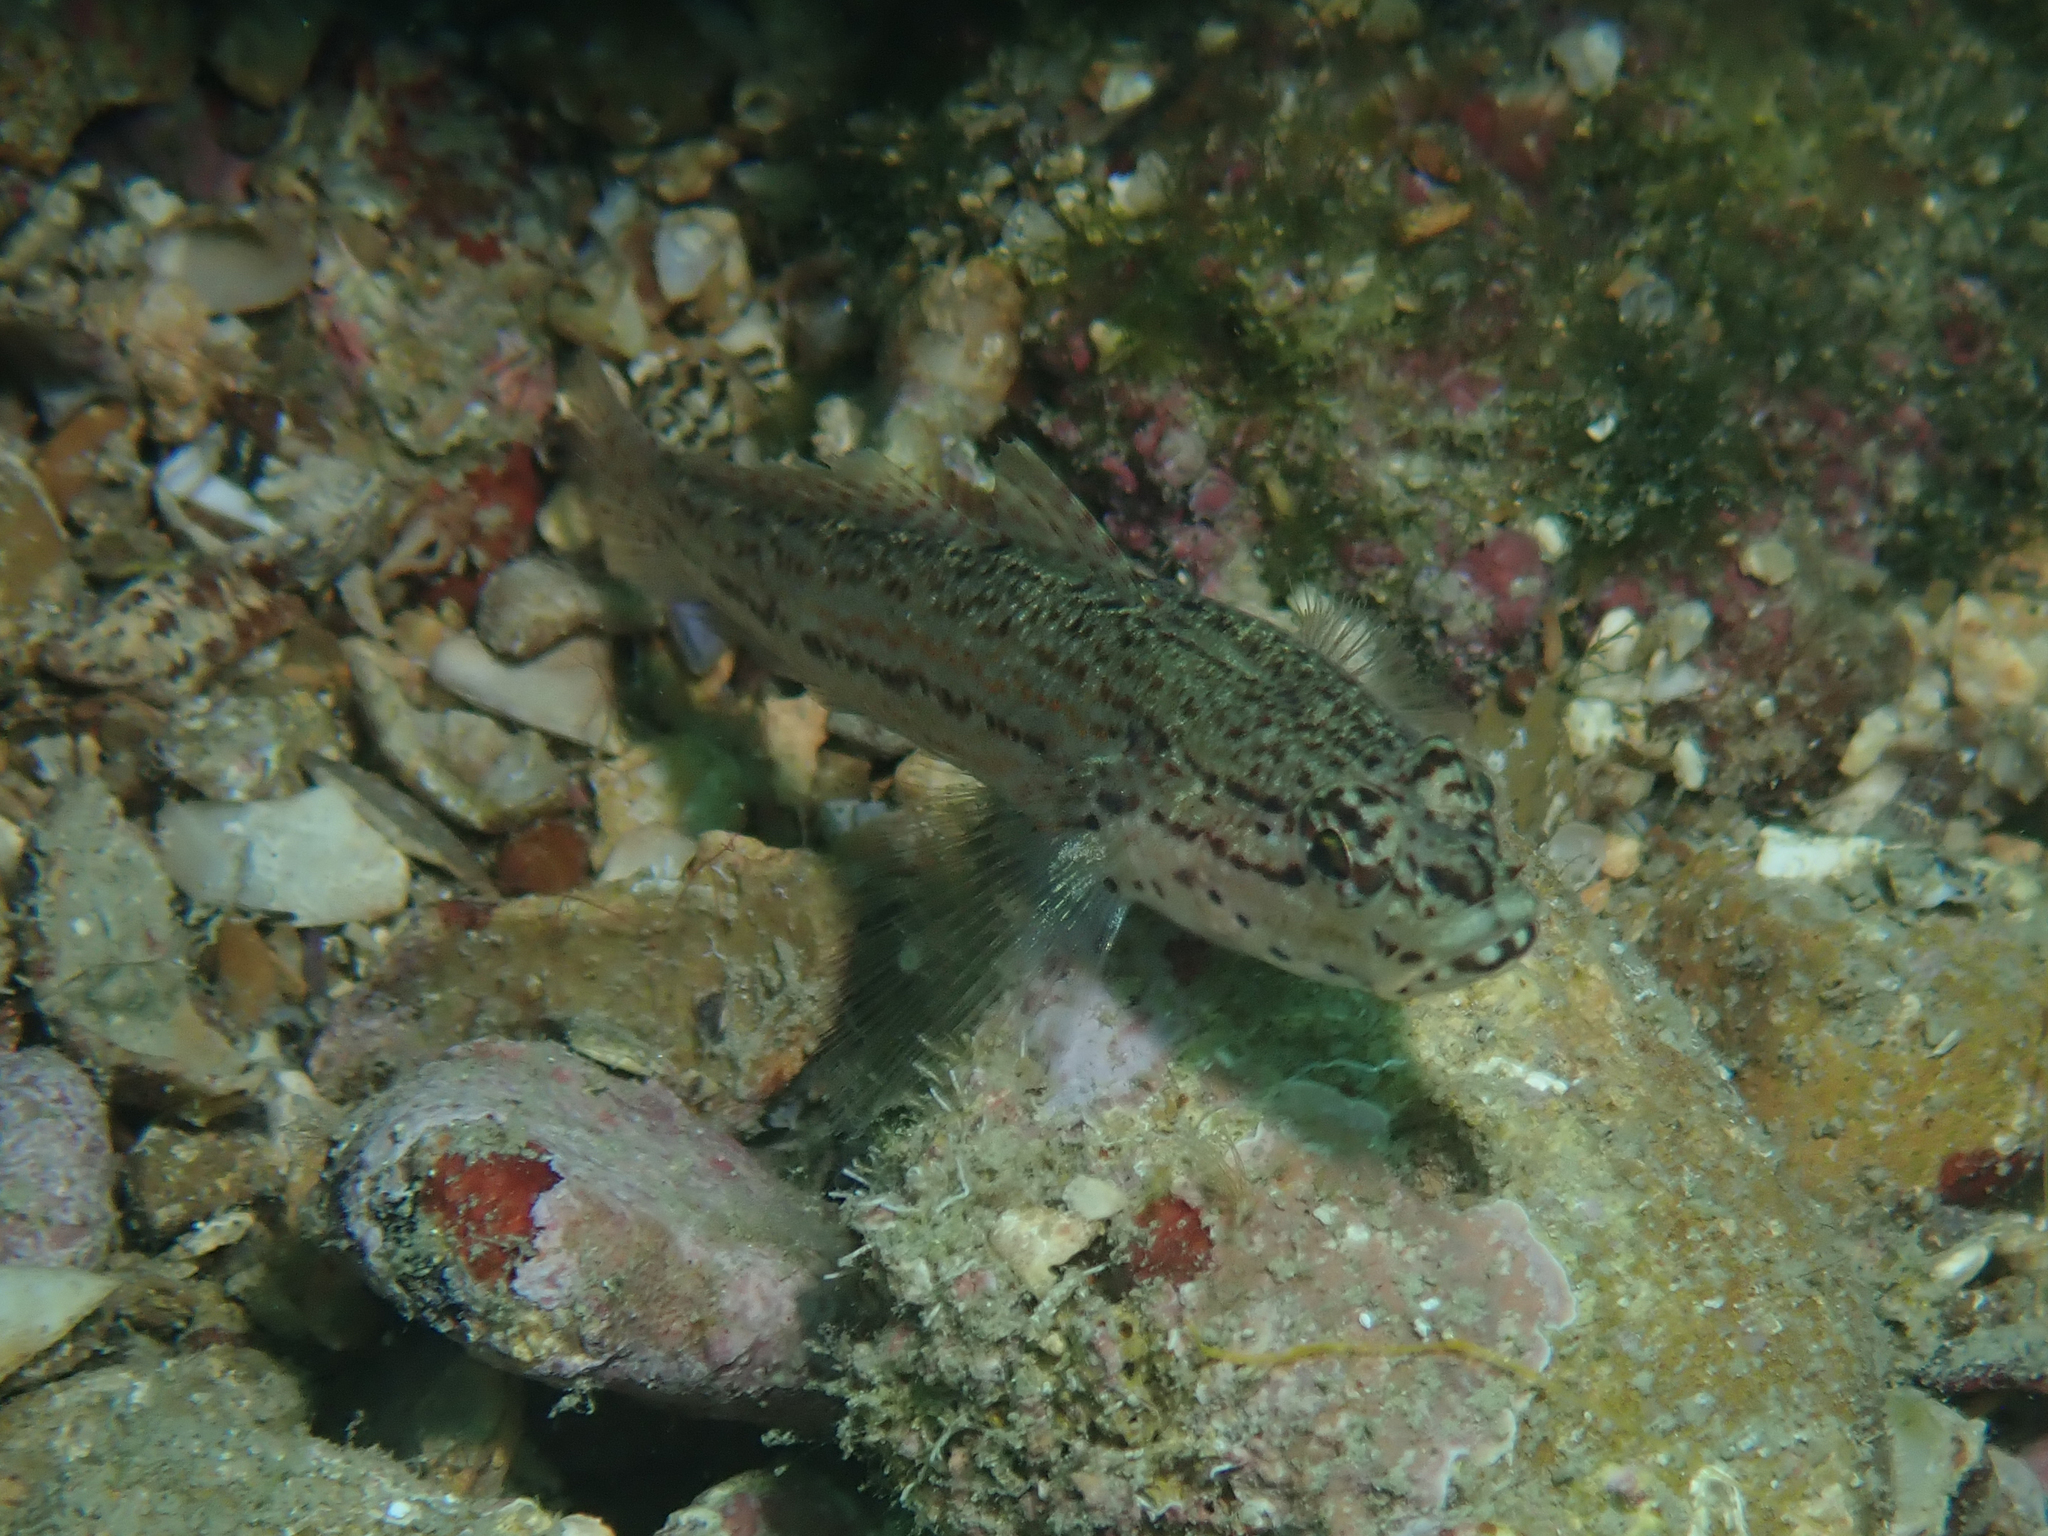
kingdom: Animalia
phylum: Chordata
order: Perciformes
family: Gobiidae
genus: Gobius
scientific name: Gobius fallax
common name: Sarato's goby
